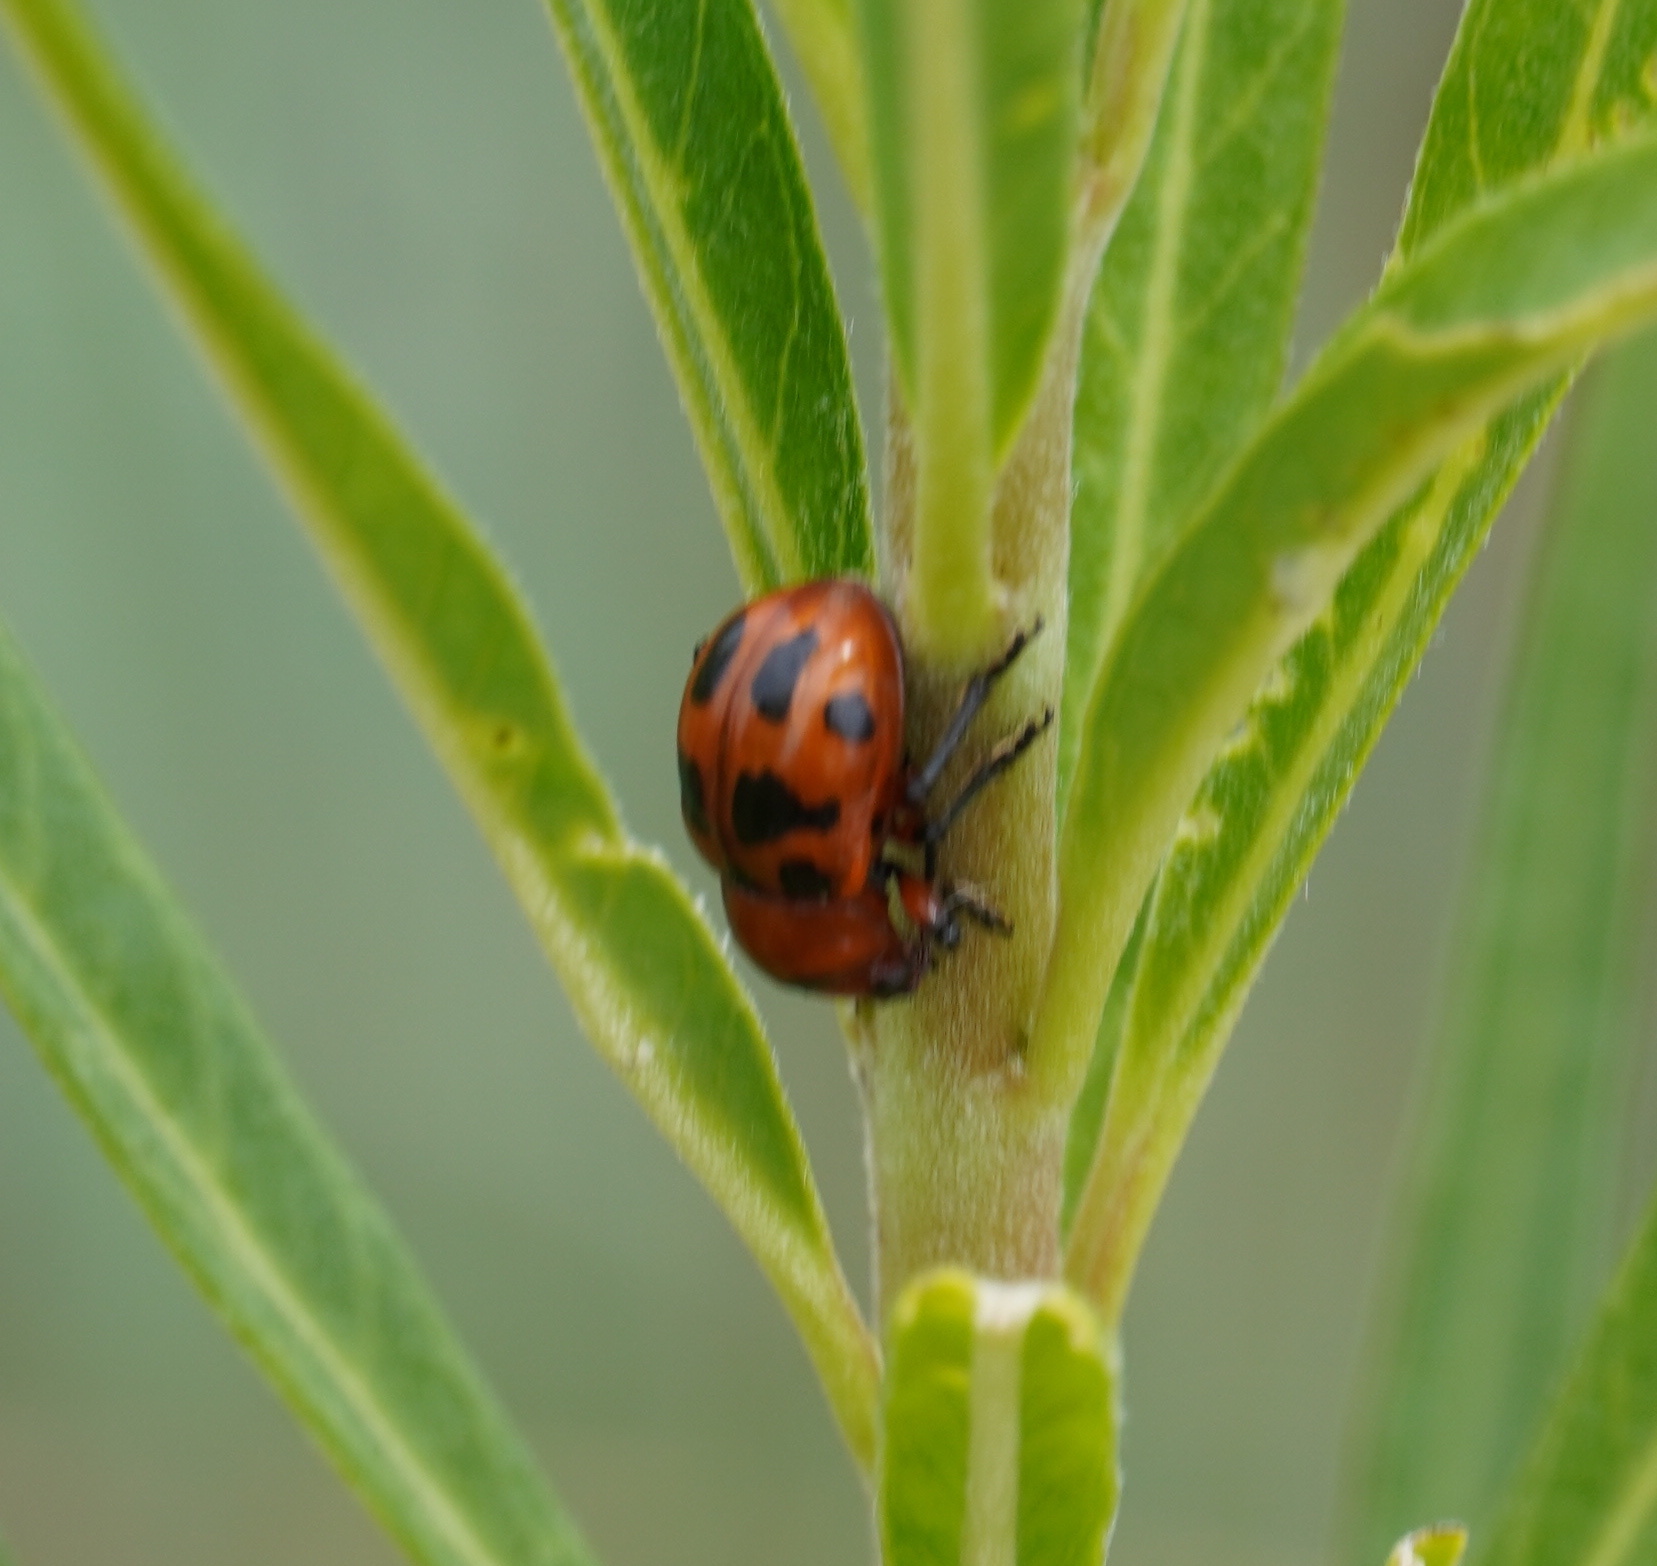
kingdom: Animalia
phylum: Arthropoda
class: Insecta
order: Coleoptera
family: Chrysomelidae
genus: Euryope
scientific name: Euryope
